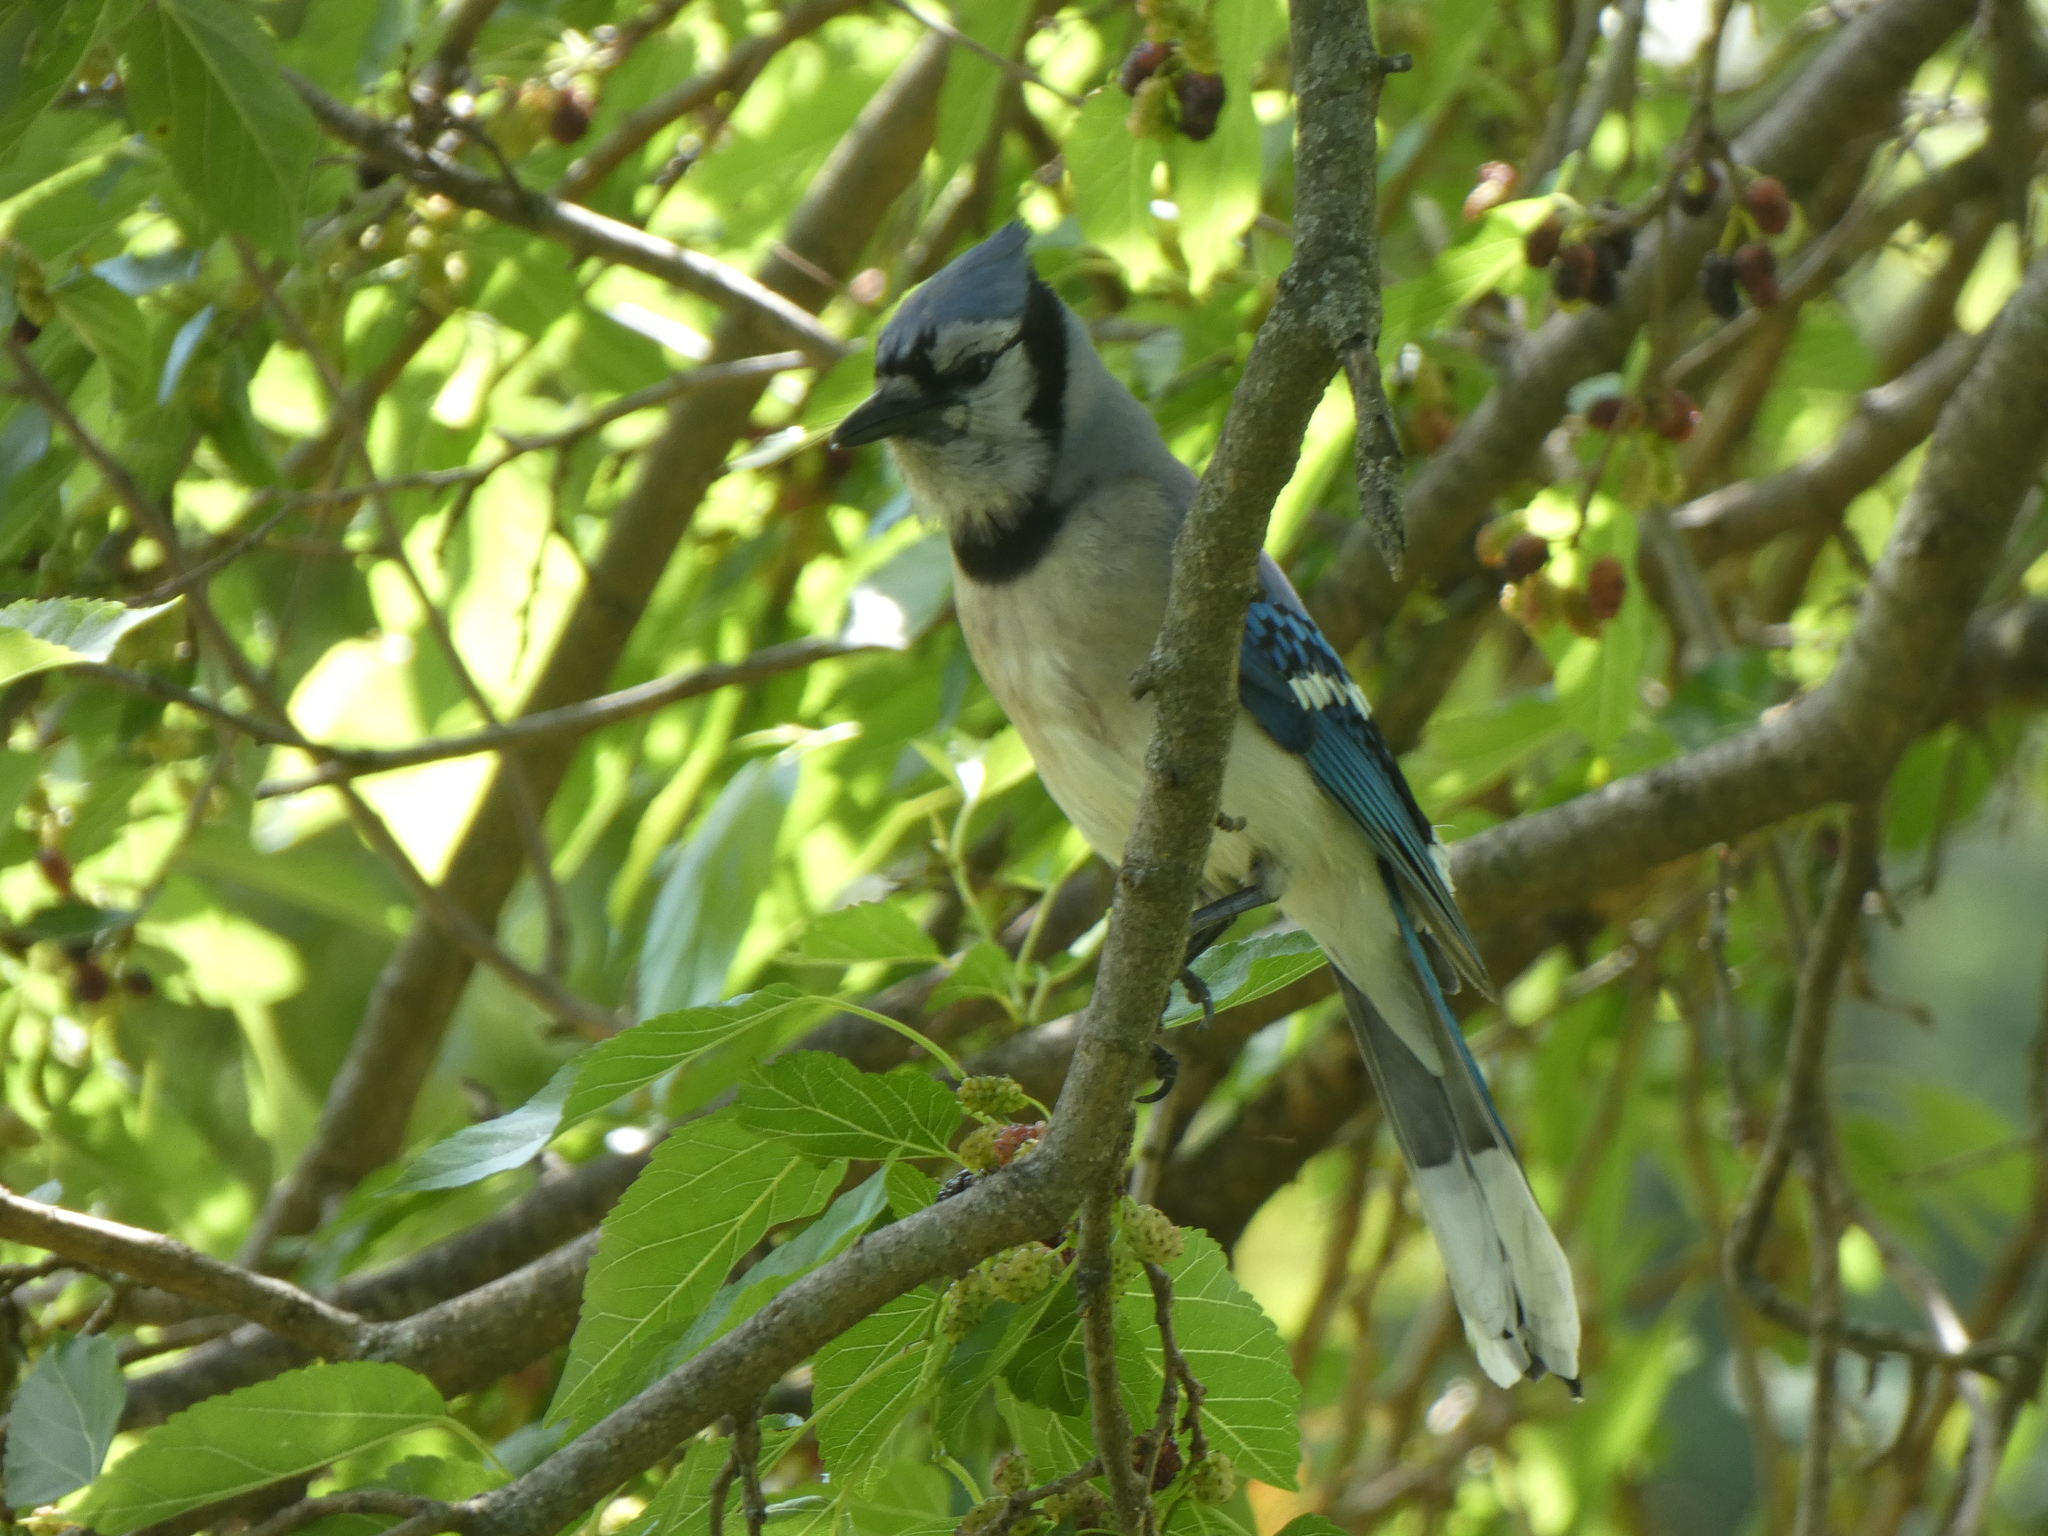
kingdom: Animalia
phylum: Chordata
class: Aves
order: Passeriformes
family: Corvidae
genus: Cyanocitta
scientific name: Cyanocitta cristata
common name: Blue jay
